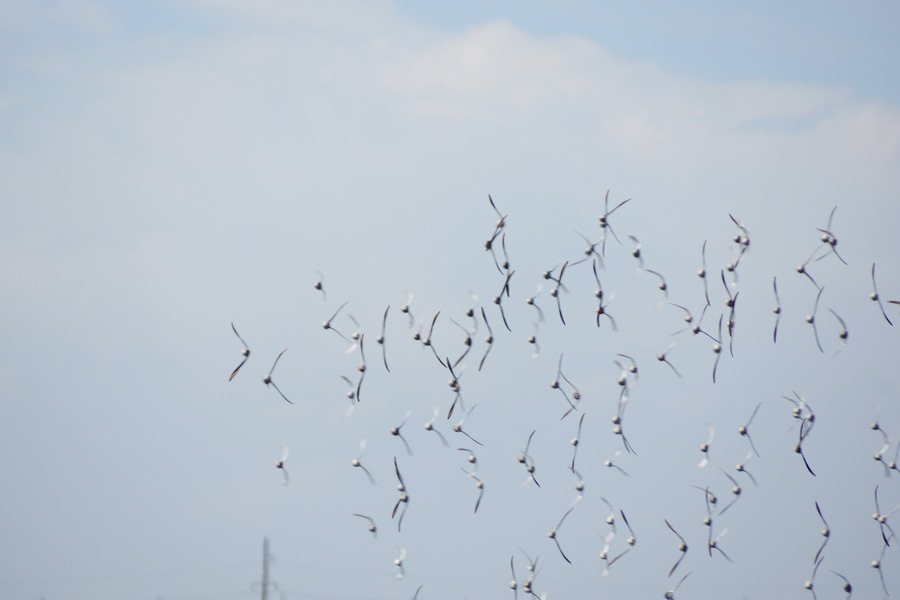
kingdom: Animalia
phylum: Chordata
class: Aves
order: Charadriiformes
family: Scolopacidae
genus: Calidris
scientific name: Calidris pugnax
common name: Ruff
